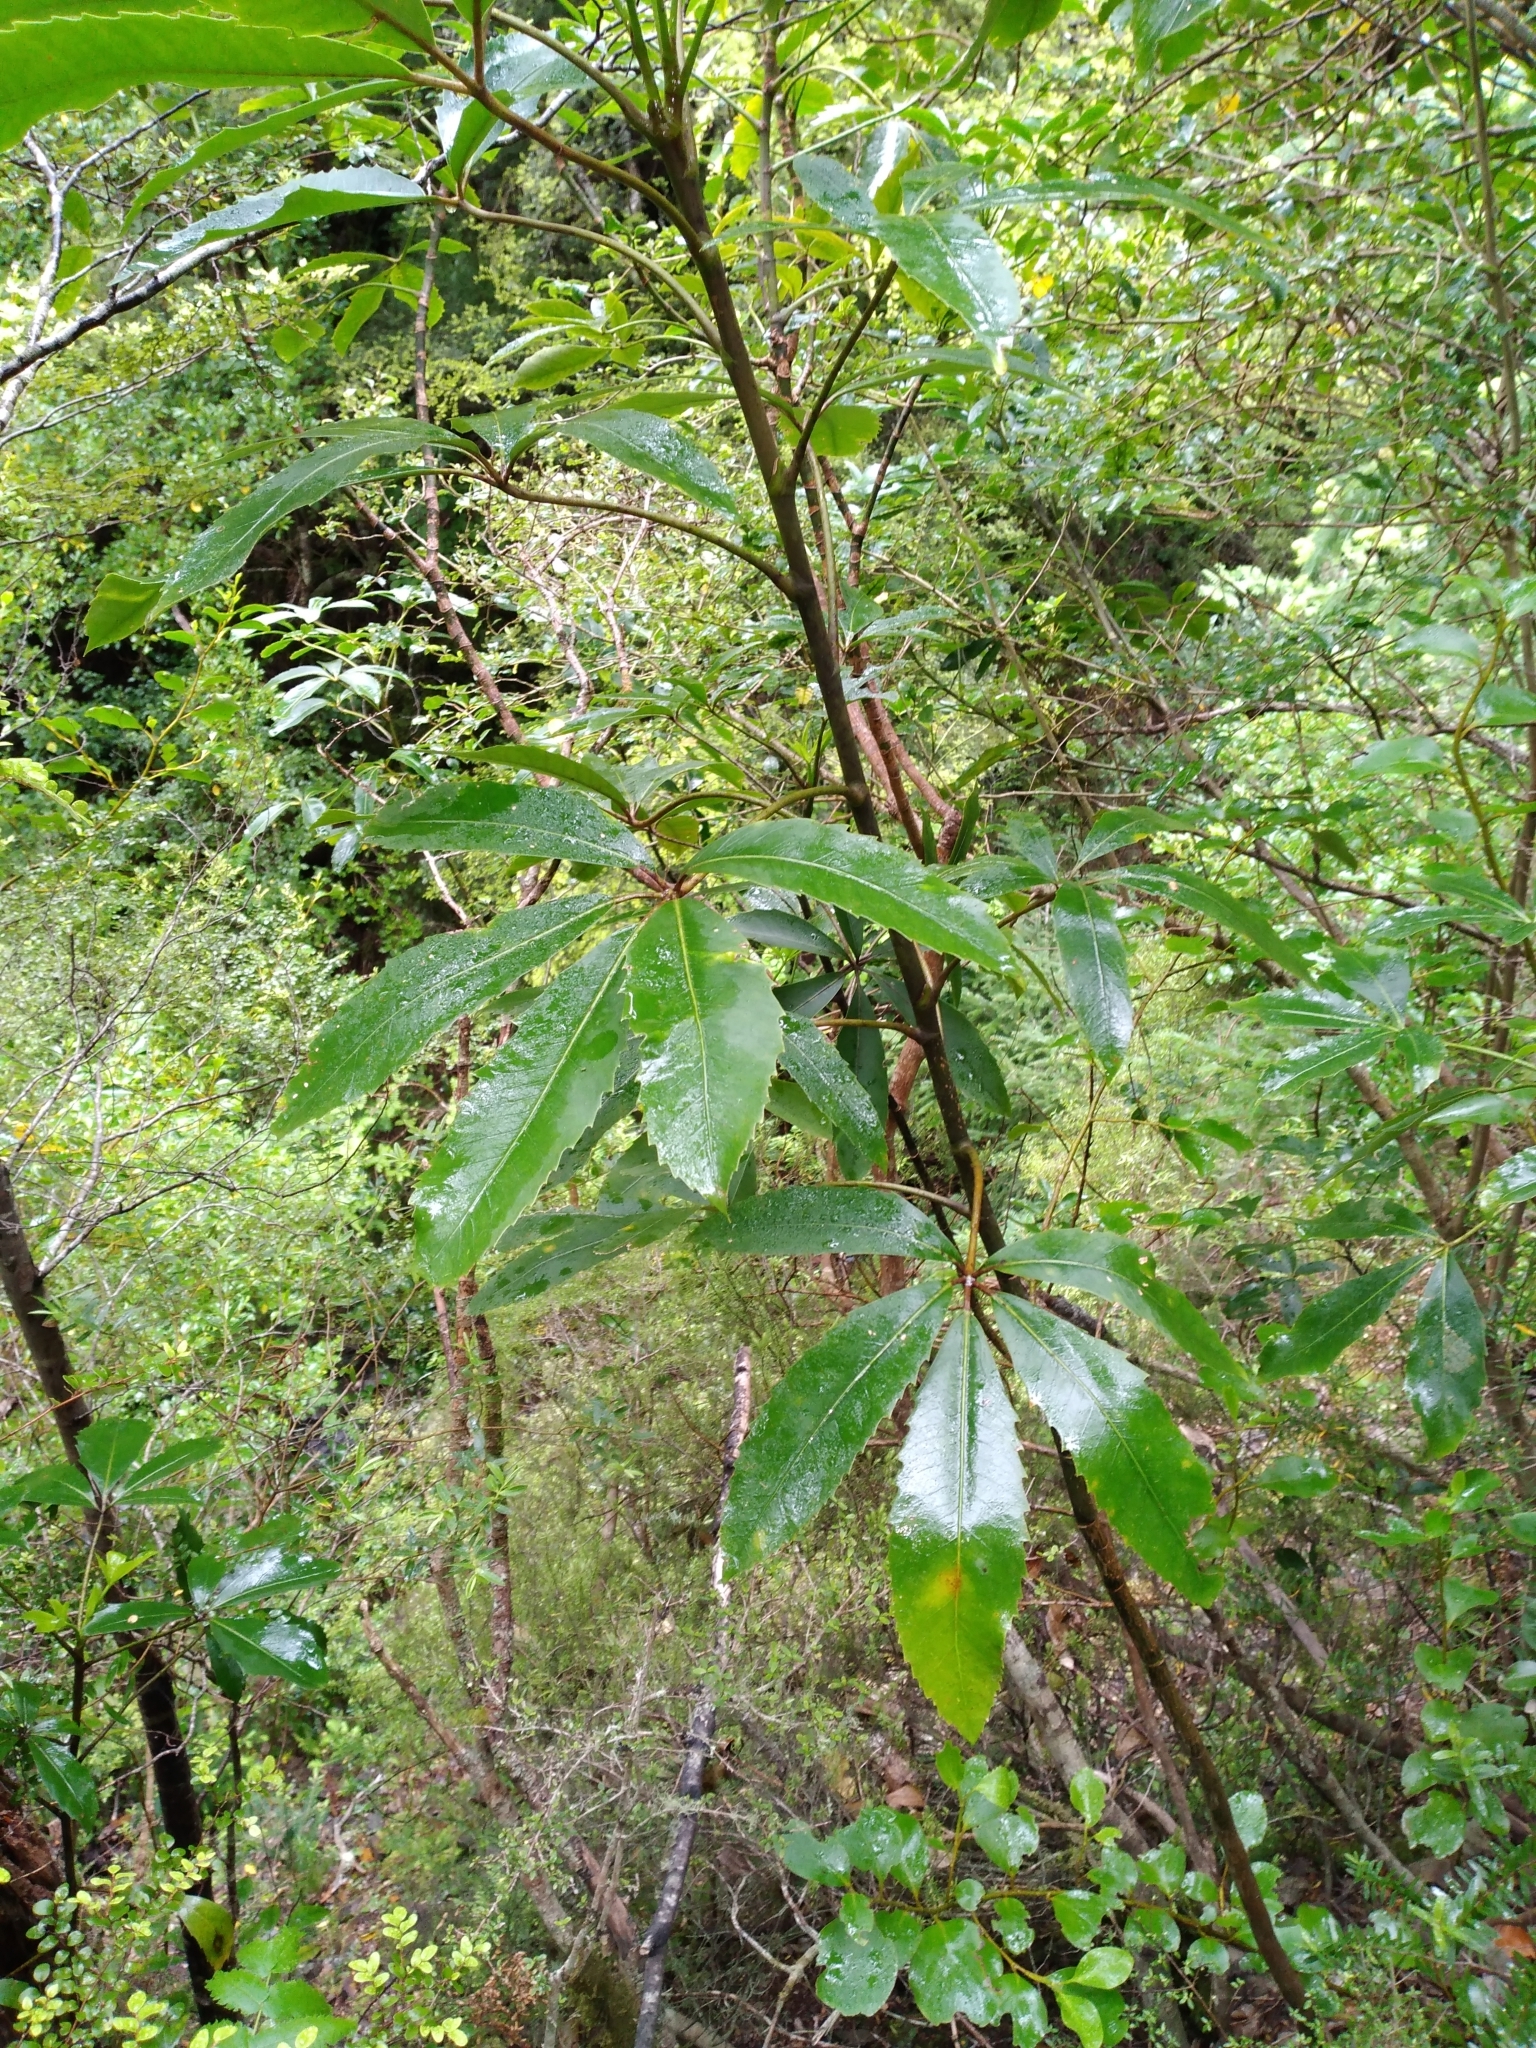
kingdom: Plantae
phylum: Tracheophyta
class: Magnoliopsida
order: Apiales
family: Araliaceae
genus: Neopanax
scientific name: Neopanax colensoi
